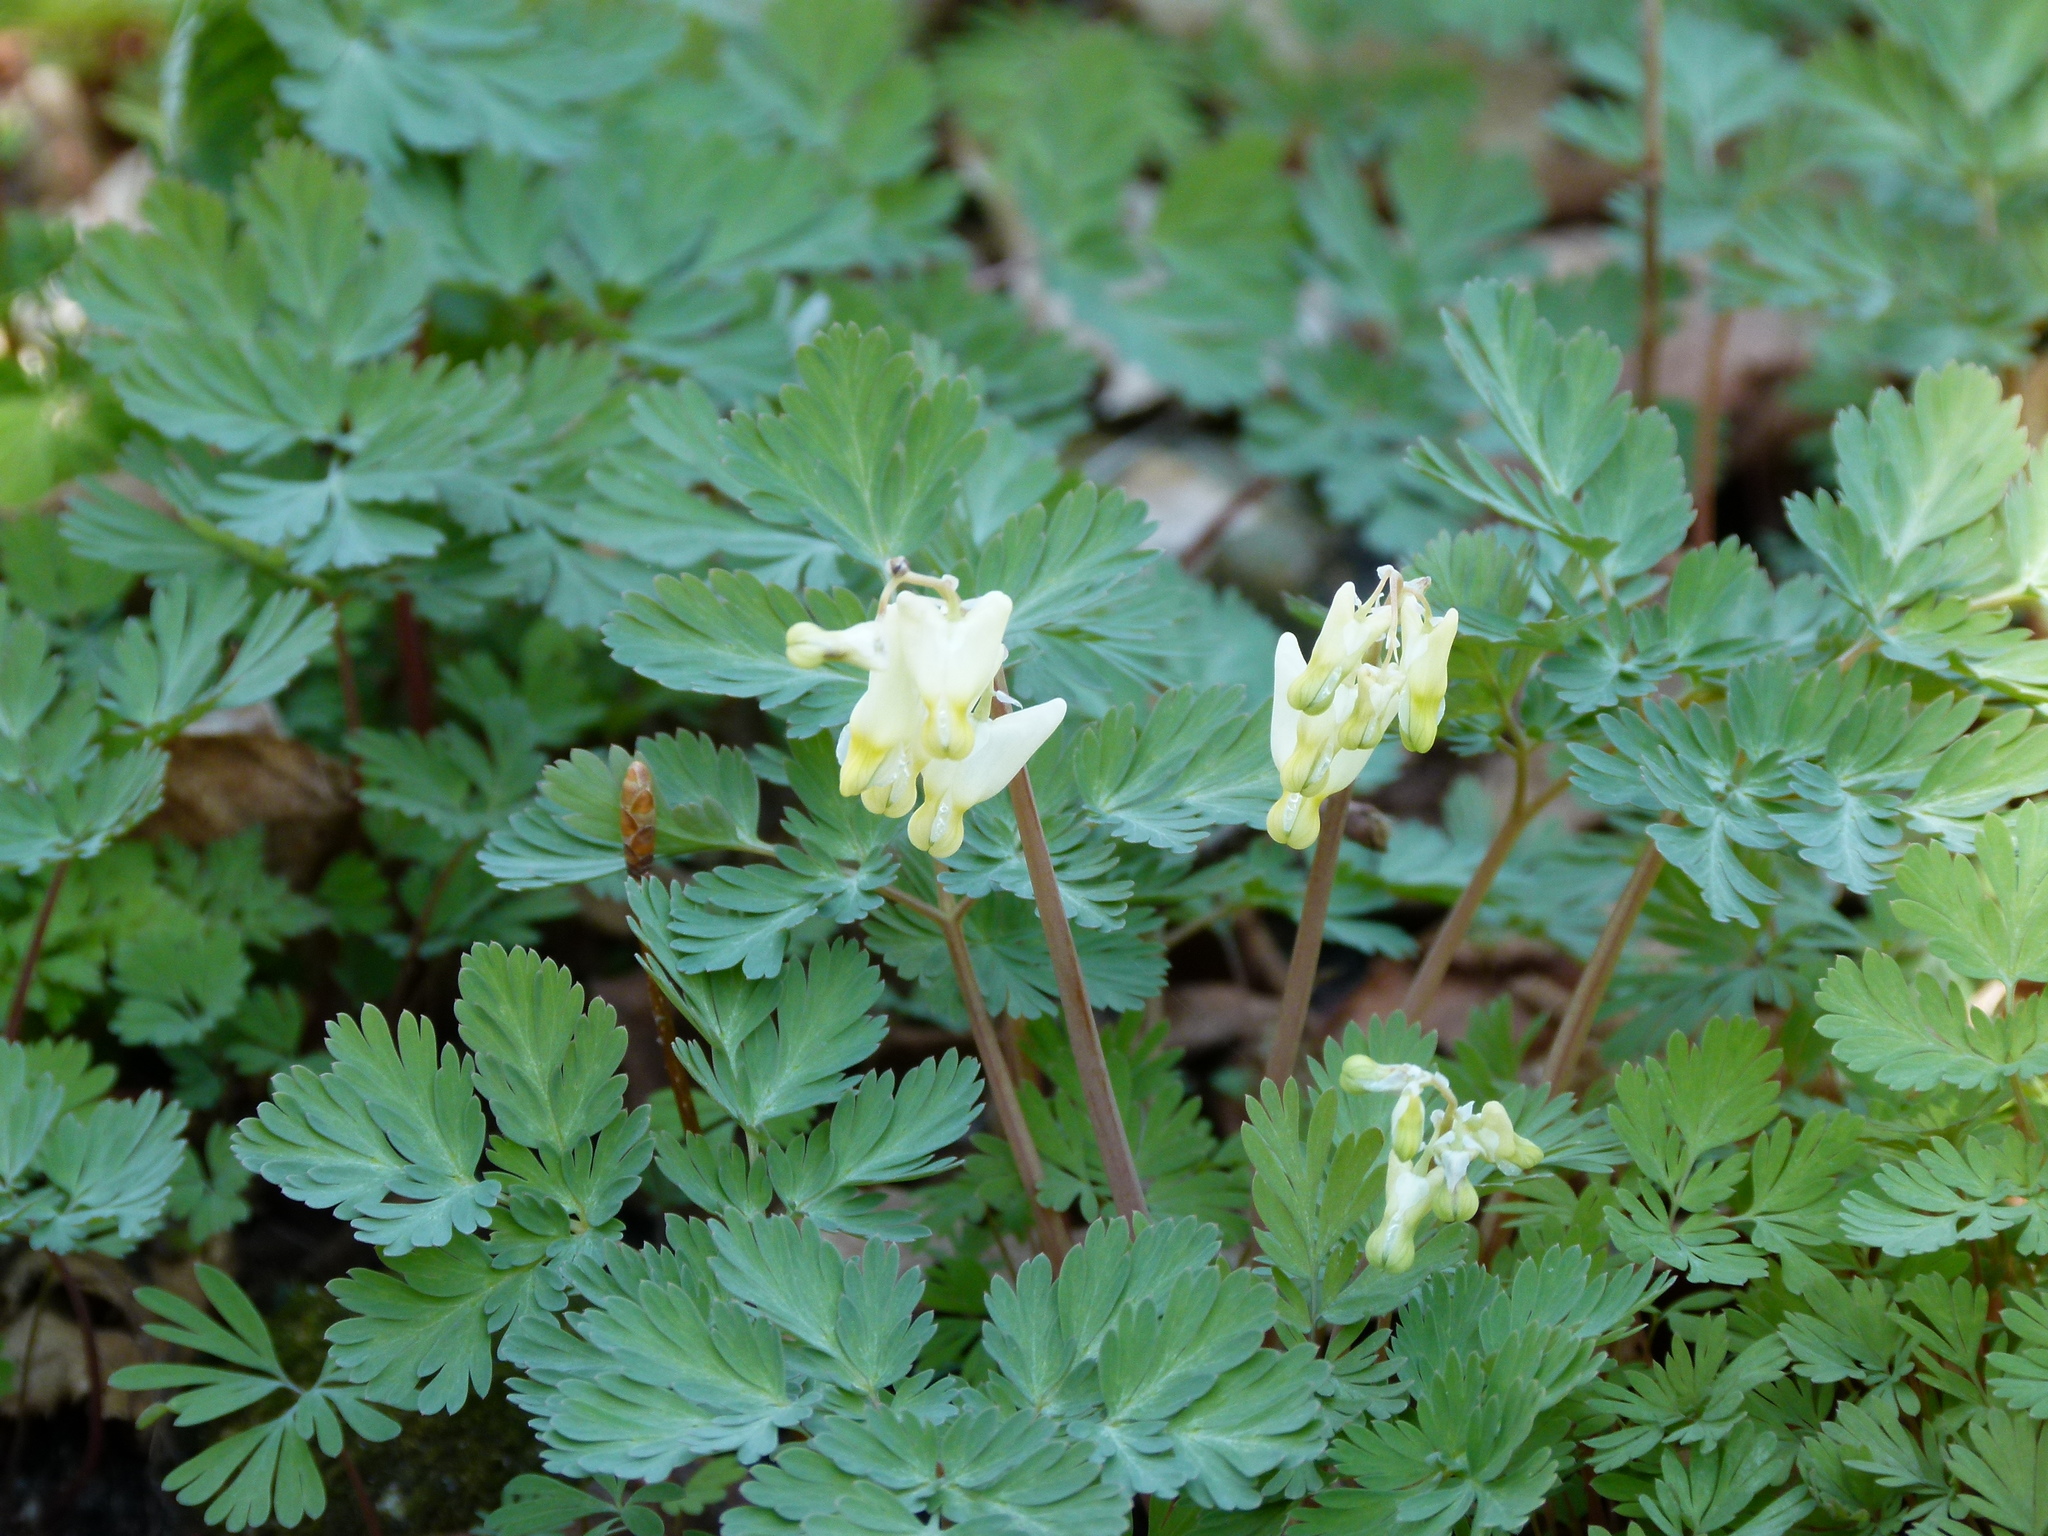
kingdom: Plantae
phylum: Tracheophyta
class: Magnoliopsida
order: Ranunculales
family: Papaveraceae
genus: Dicentra
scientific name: Dicentra cucullaria
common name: Dutchman's breeches
